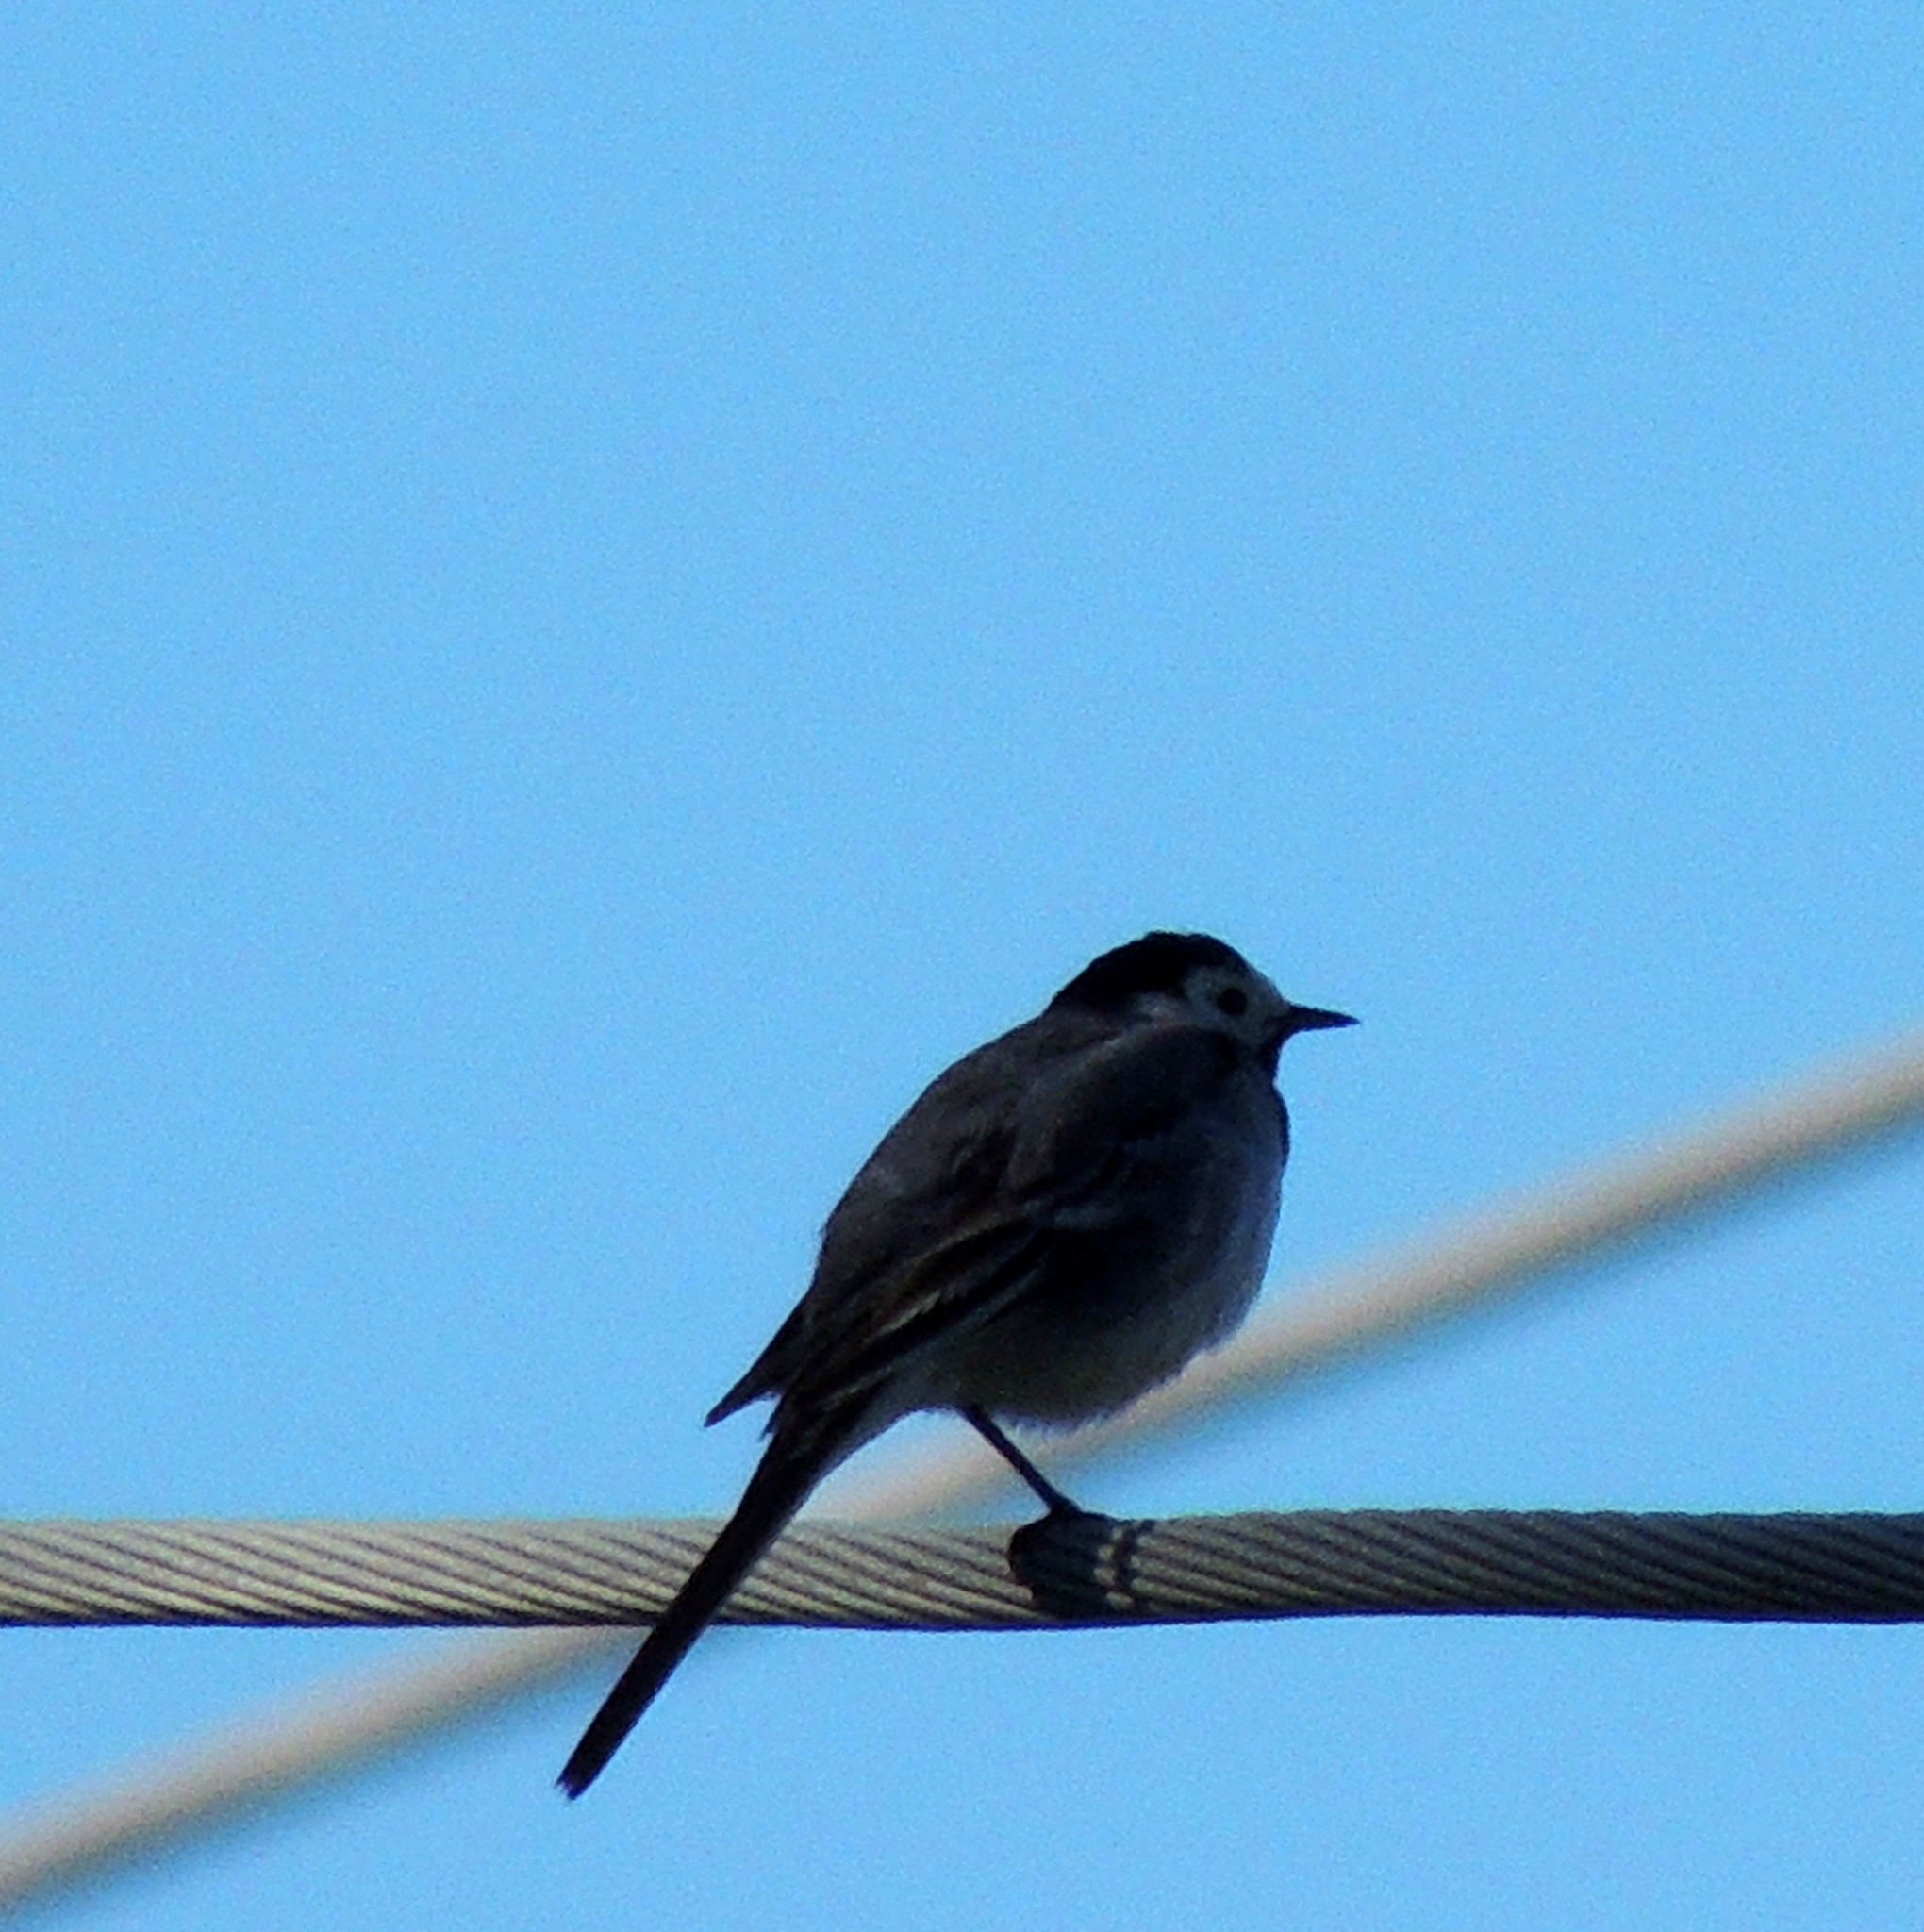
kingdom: Animalia
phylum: Chordata
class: Aves
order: Passeriformes
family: Motacillidae
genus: Motacilla
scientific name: Motacilla alba
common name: White wagtail
